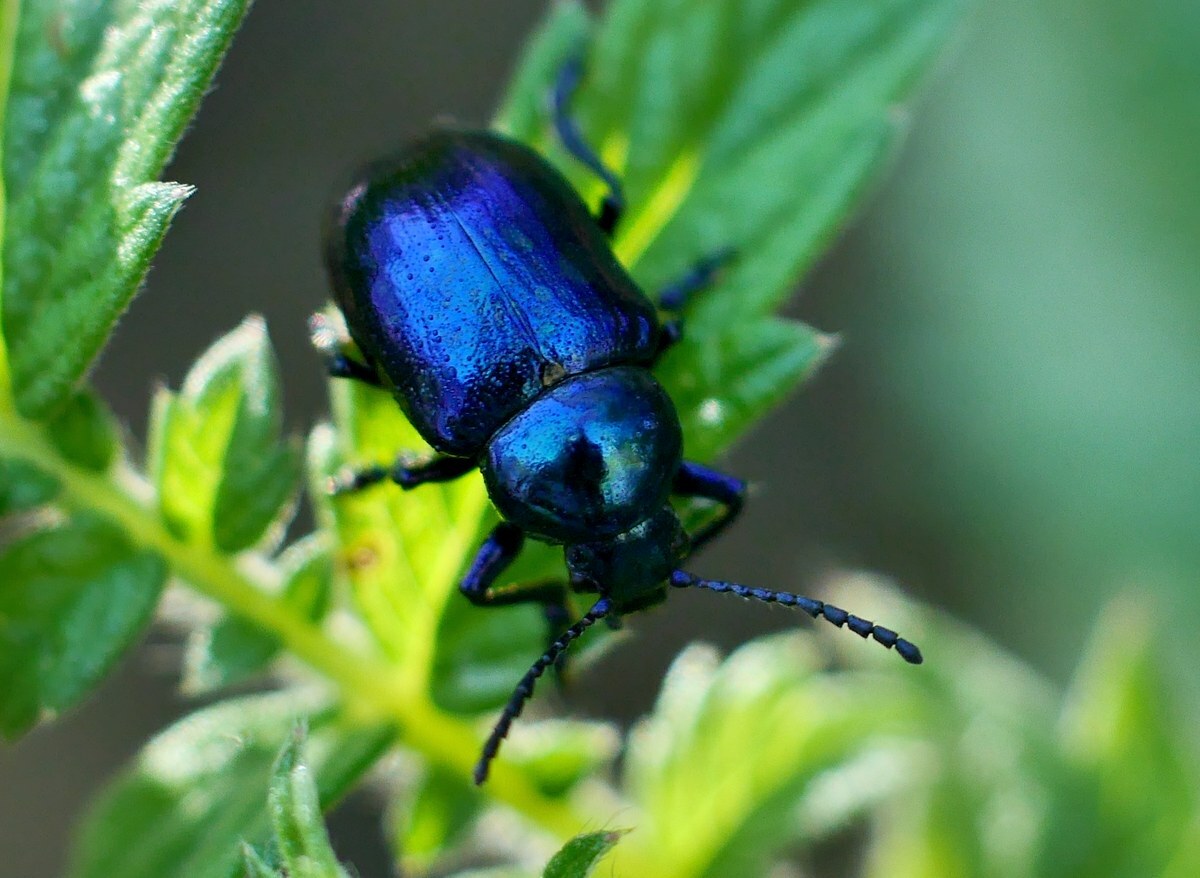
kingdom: Animalia
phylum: Arthropoda
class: Insecta
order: Coleoptera
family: Chrysomelidae
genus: Chrysochus
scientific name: Chrysochus asclepiadeus
